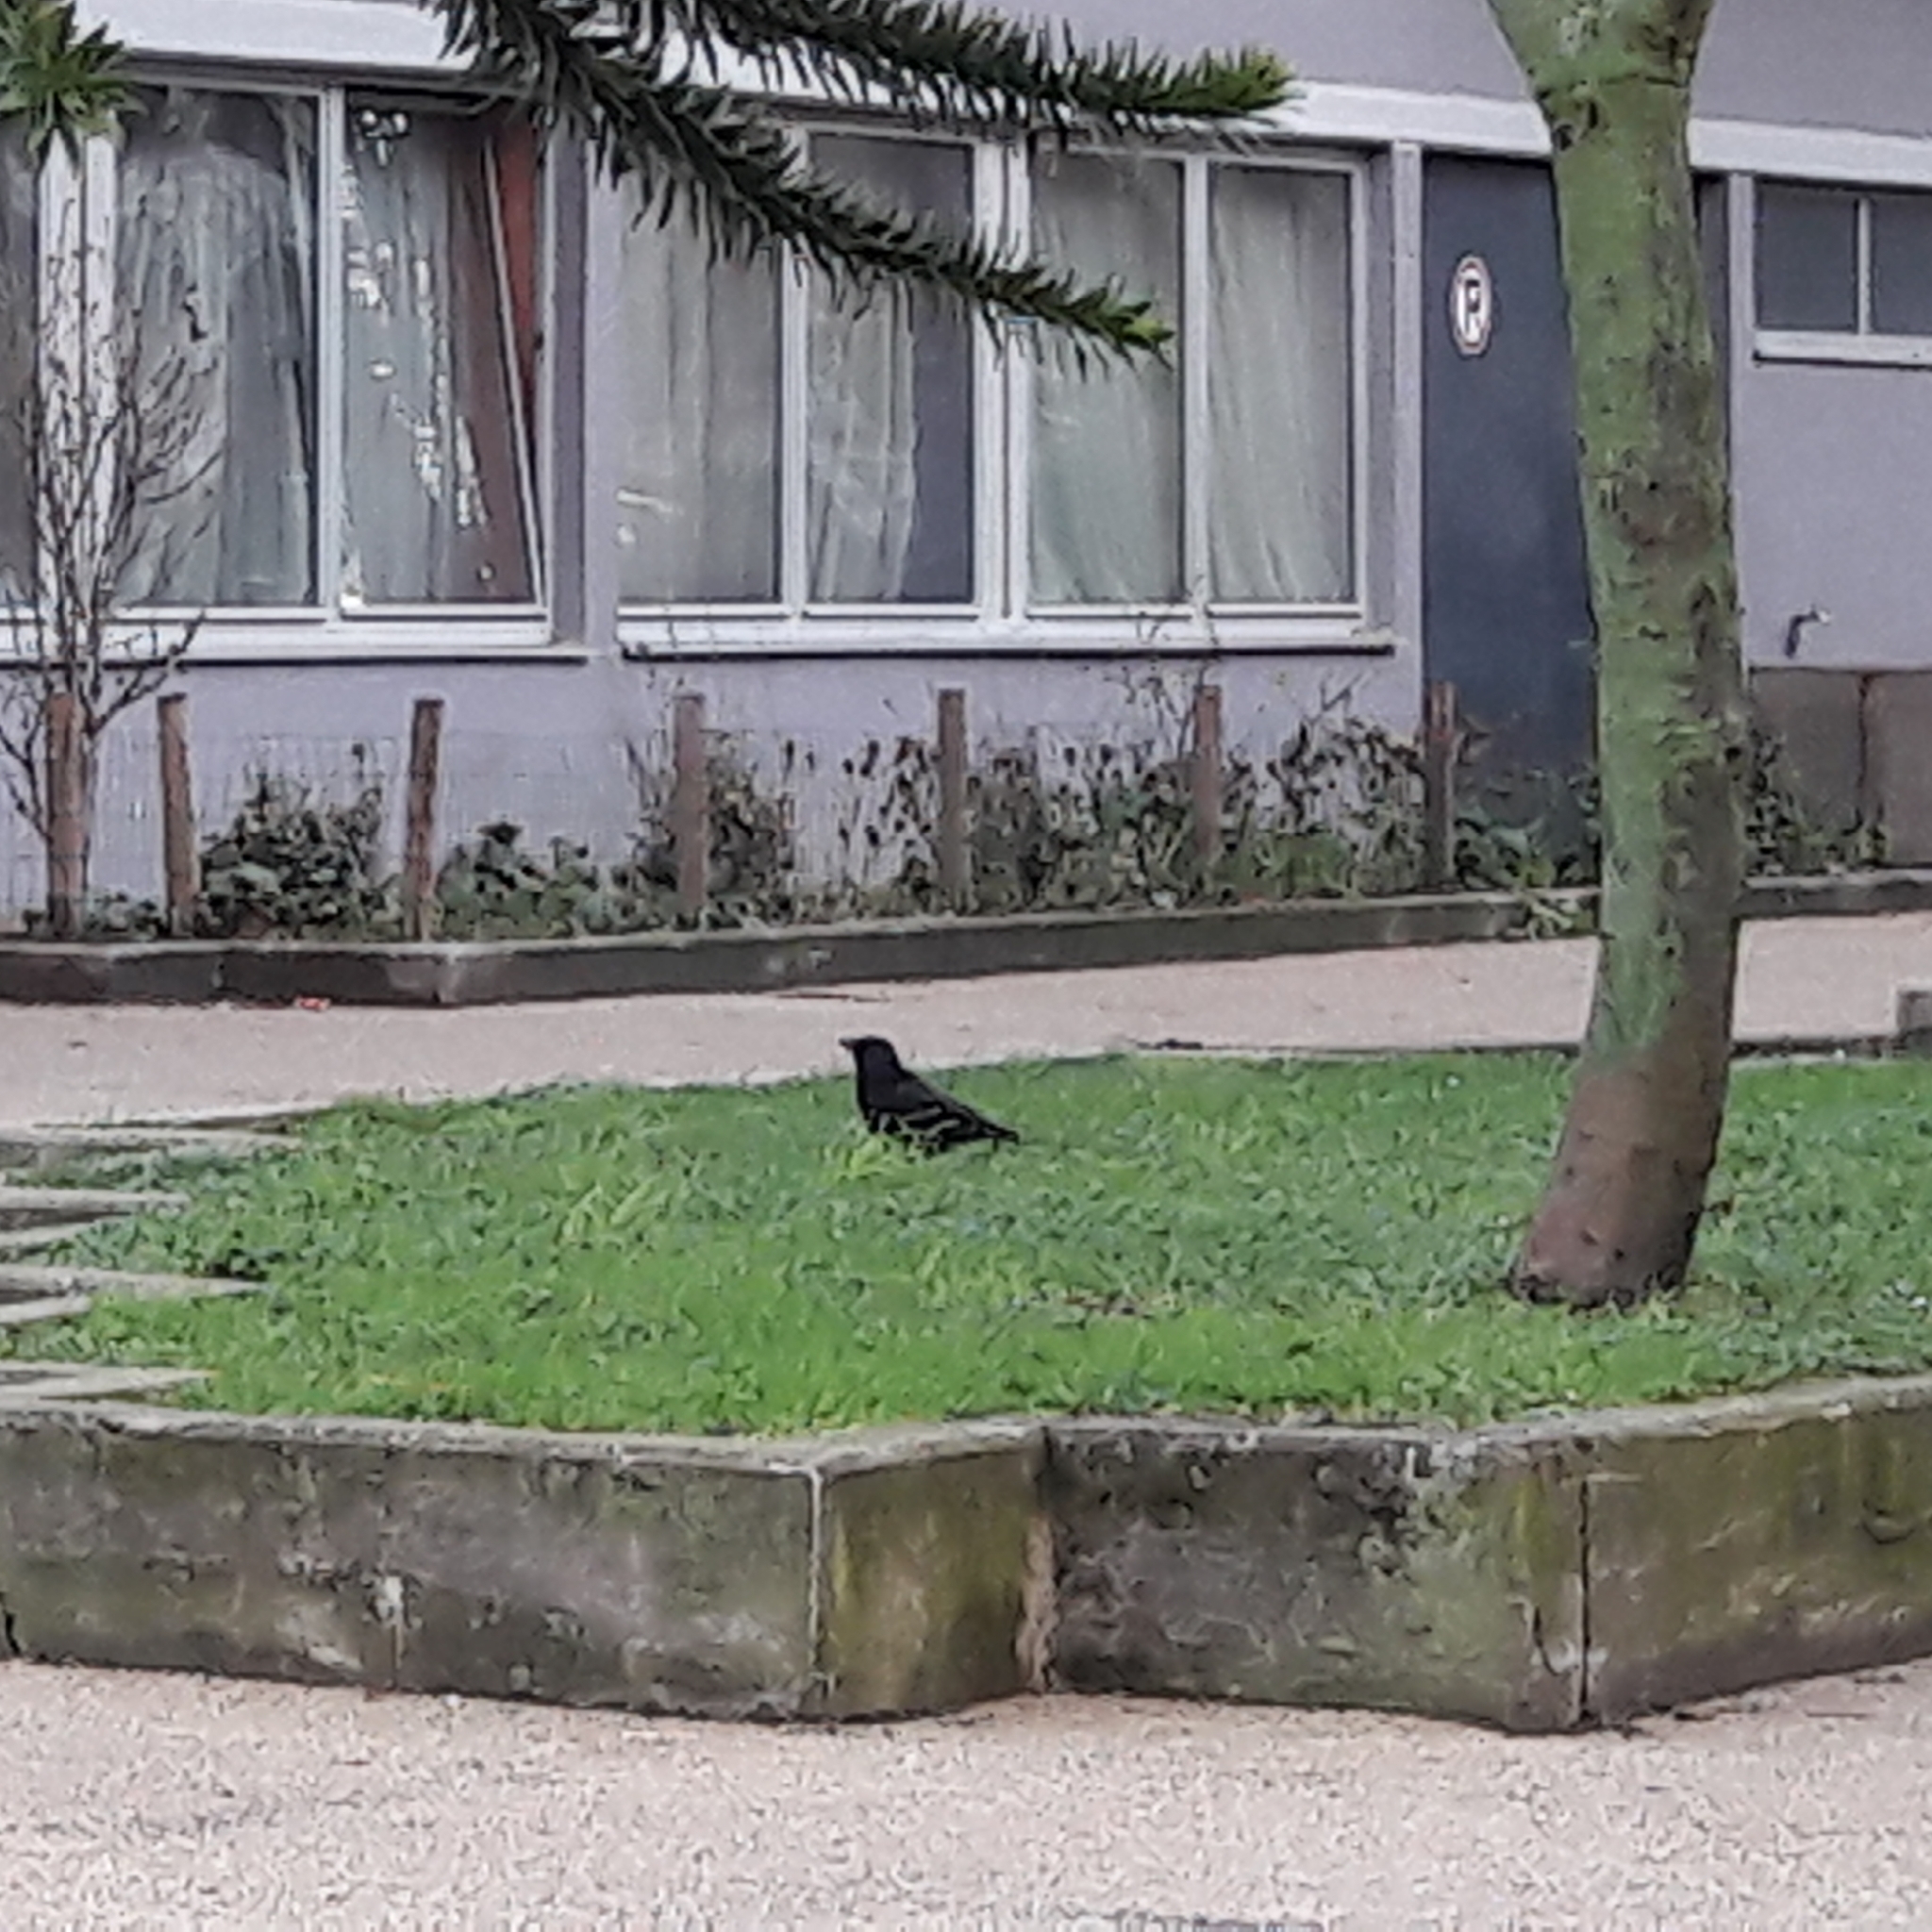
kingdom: Animalia
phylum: Chordata
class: Aves
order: Passeriformes
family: Corvidae
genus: Corvus
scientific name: Corvus corone
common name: Carrion crow
